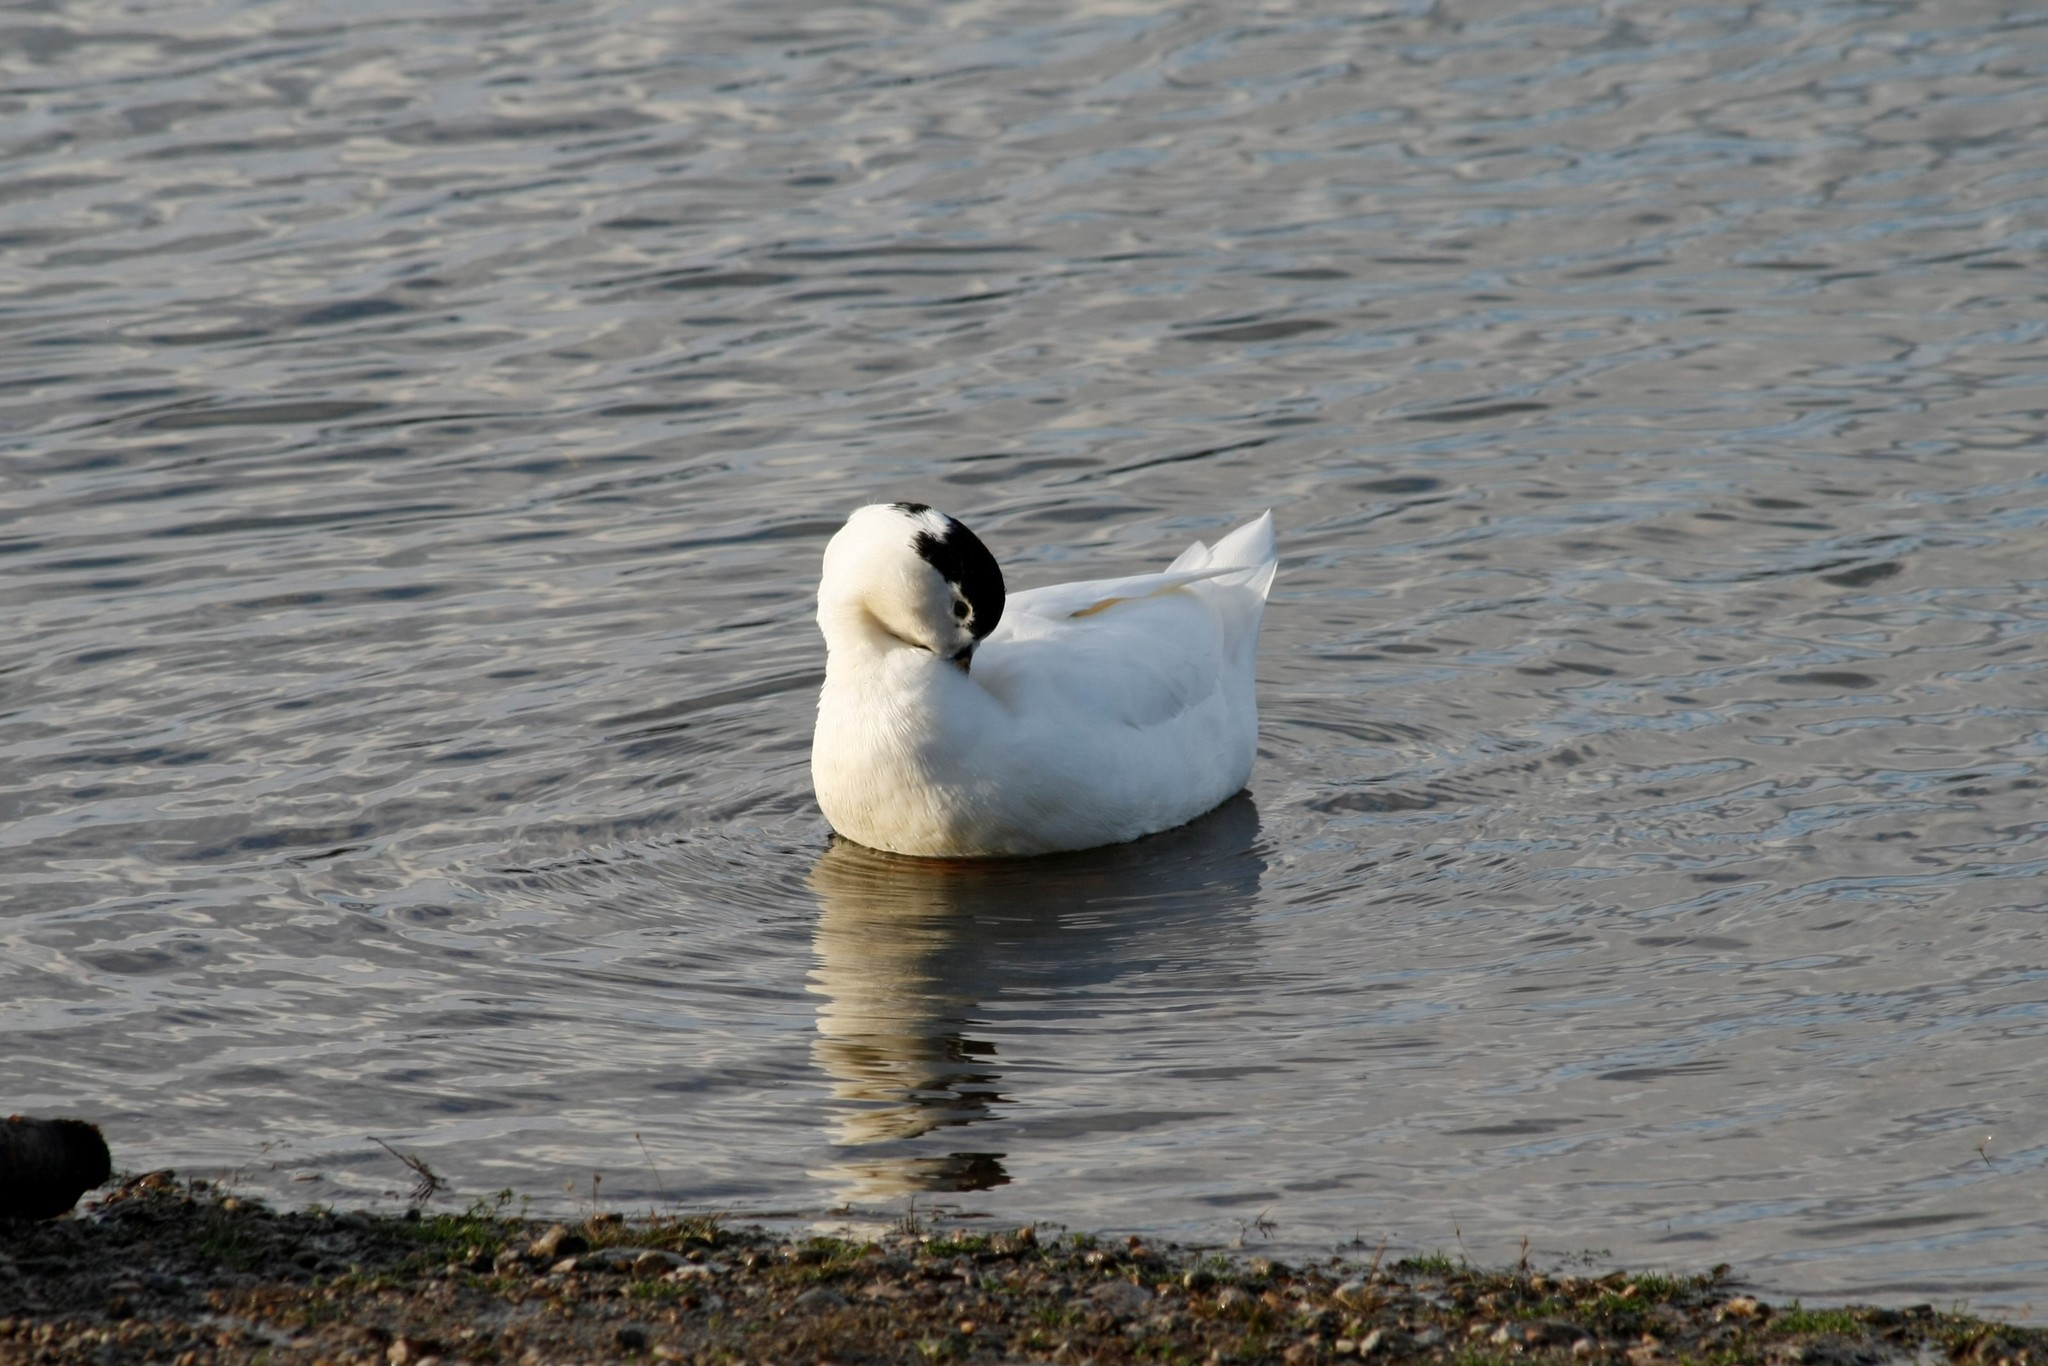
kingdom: Animalia
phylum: Chordata
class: Aves
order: Anseriformes
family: Anatidae
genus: Anas
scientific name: Anas platyrhynchos
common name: Mallard
